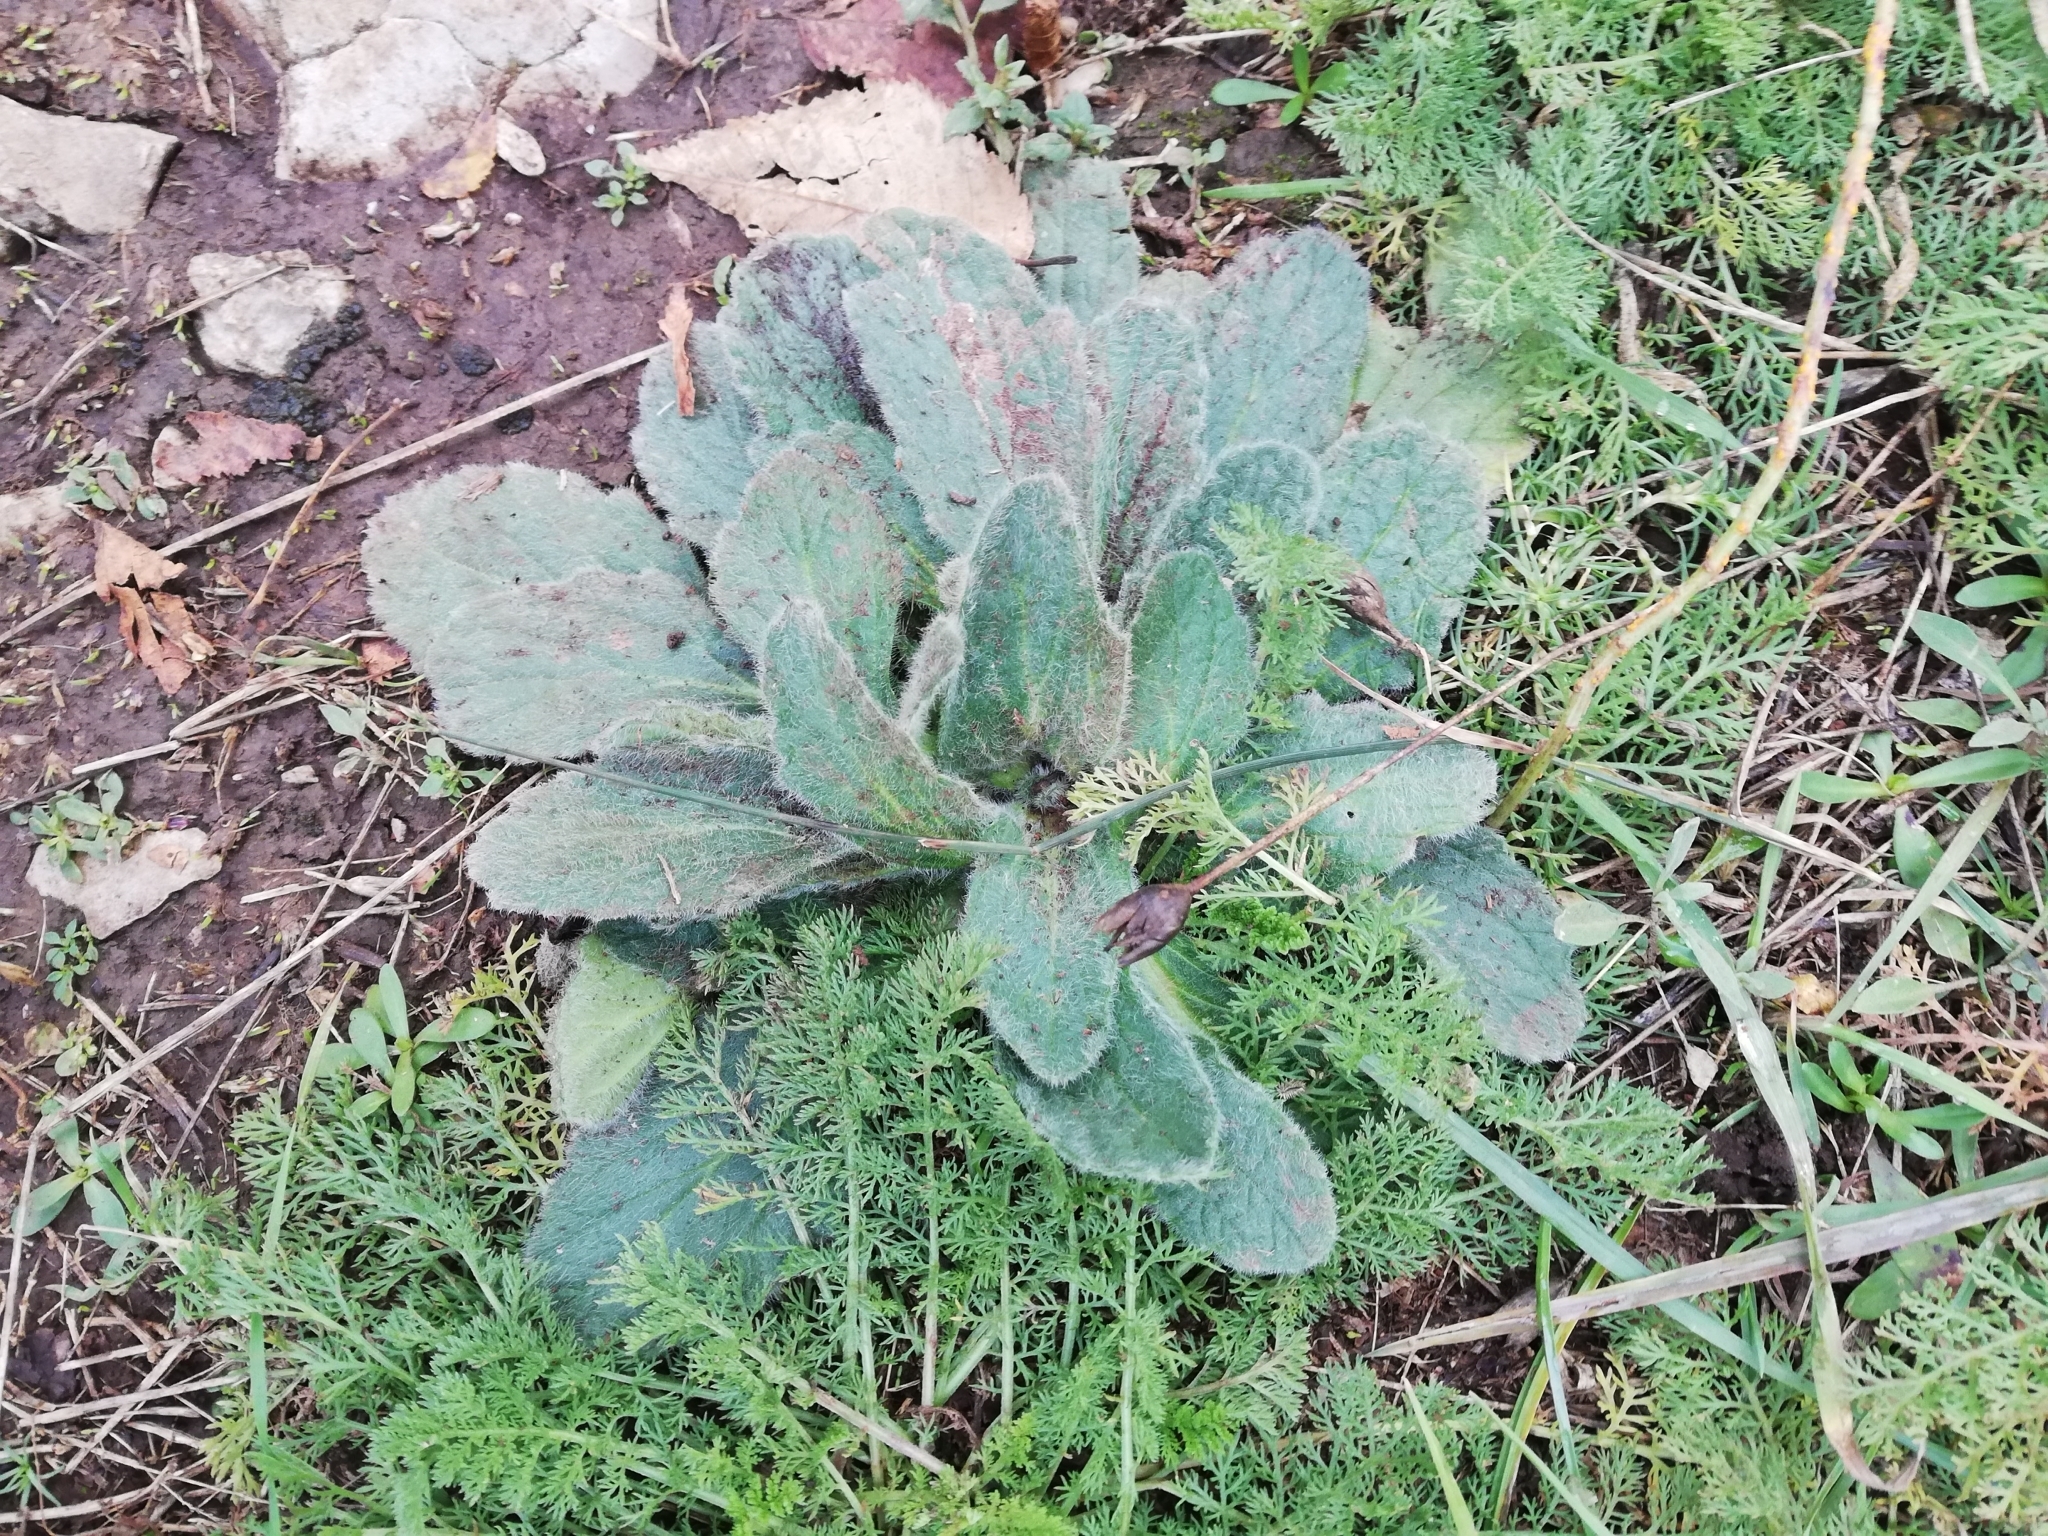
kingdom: Plantae
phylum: Tracheophyta
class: Magnoliopsida
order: Lamiales
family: Lamiaceae
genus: Ajuga
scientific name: Ajuga orientalis
